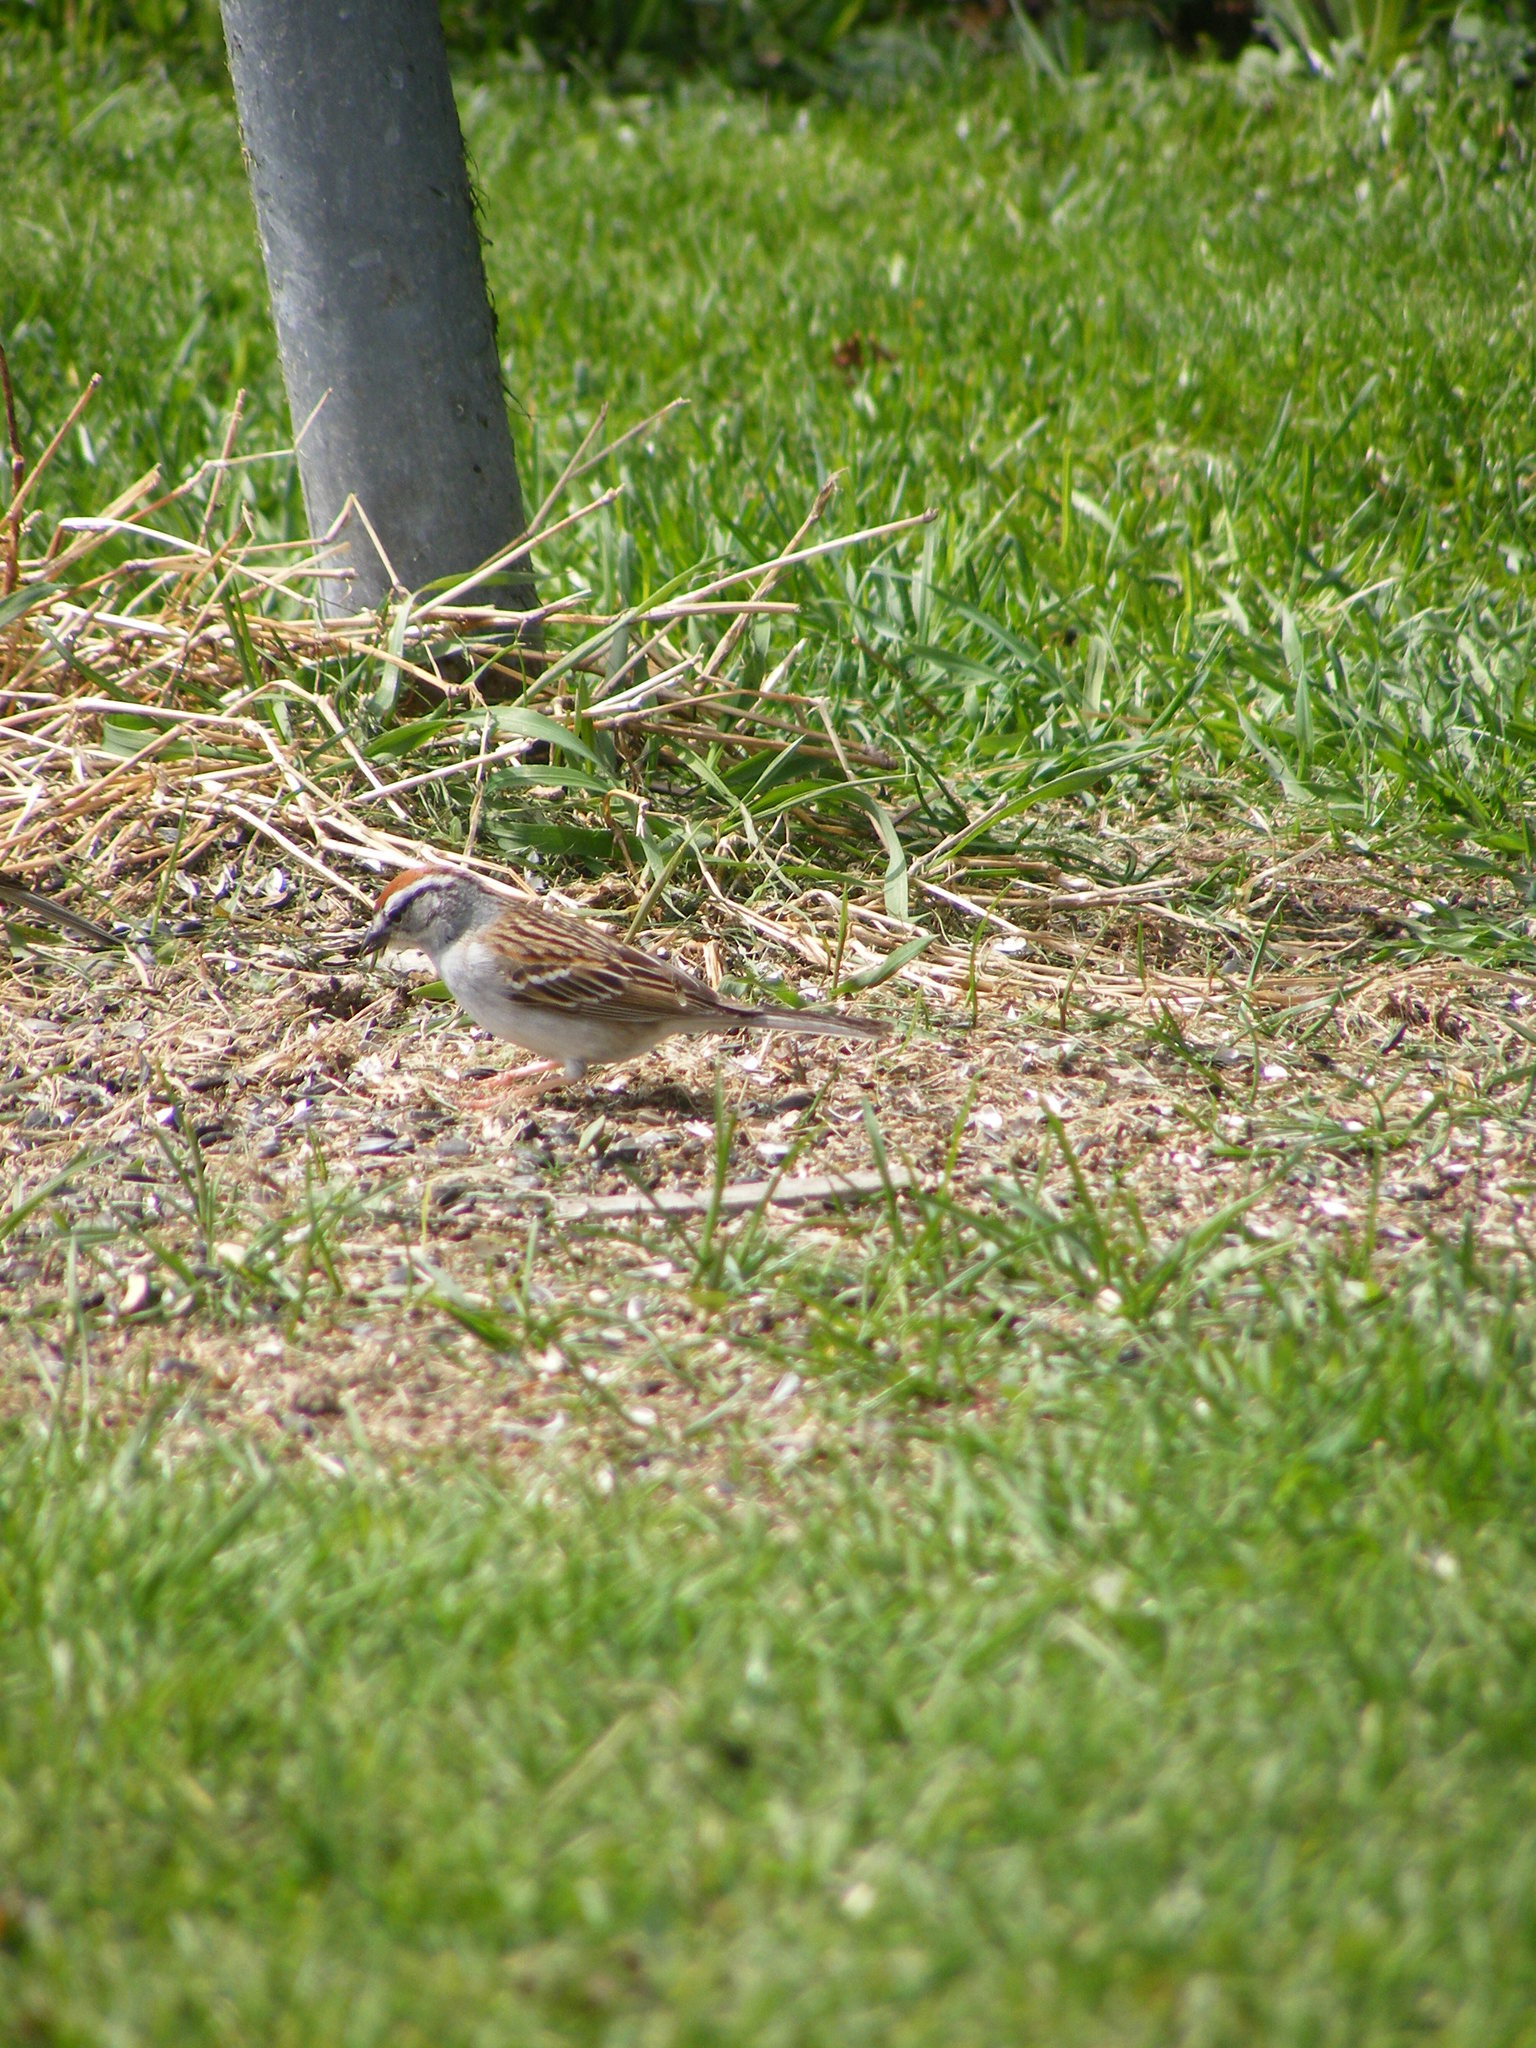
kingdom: Animalia
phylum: Chordata
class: Aves
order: Passeriformes
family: Passerellidae
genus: Spizella
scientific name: Spizella passerina
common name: Chipping sparrow
